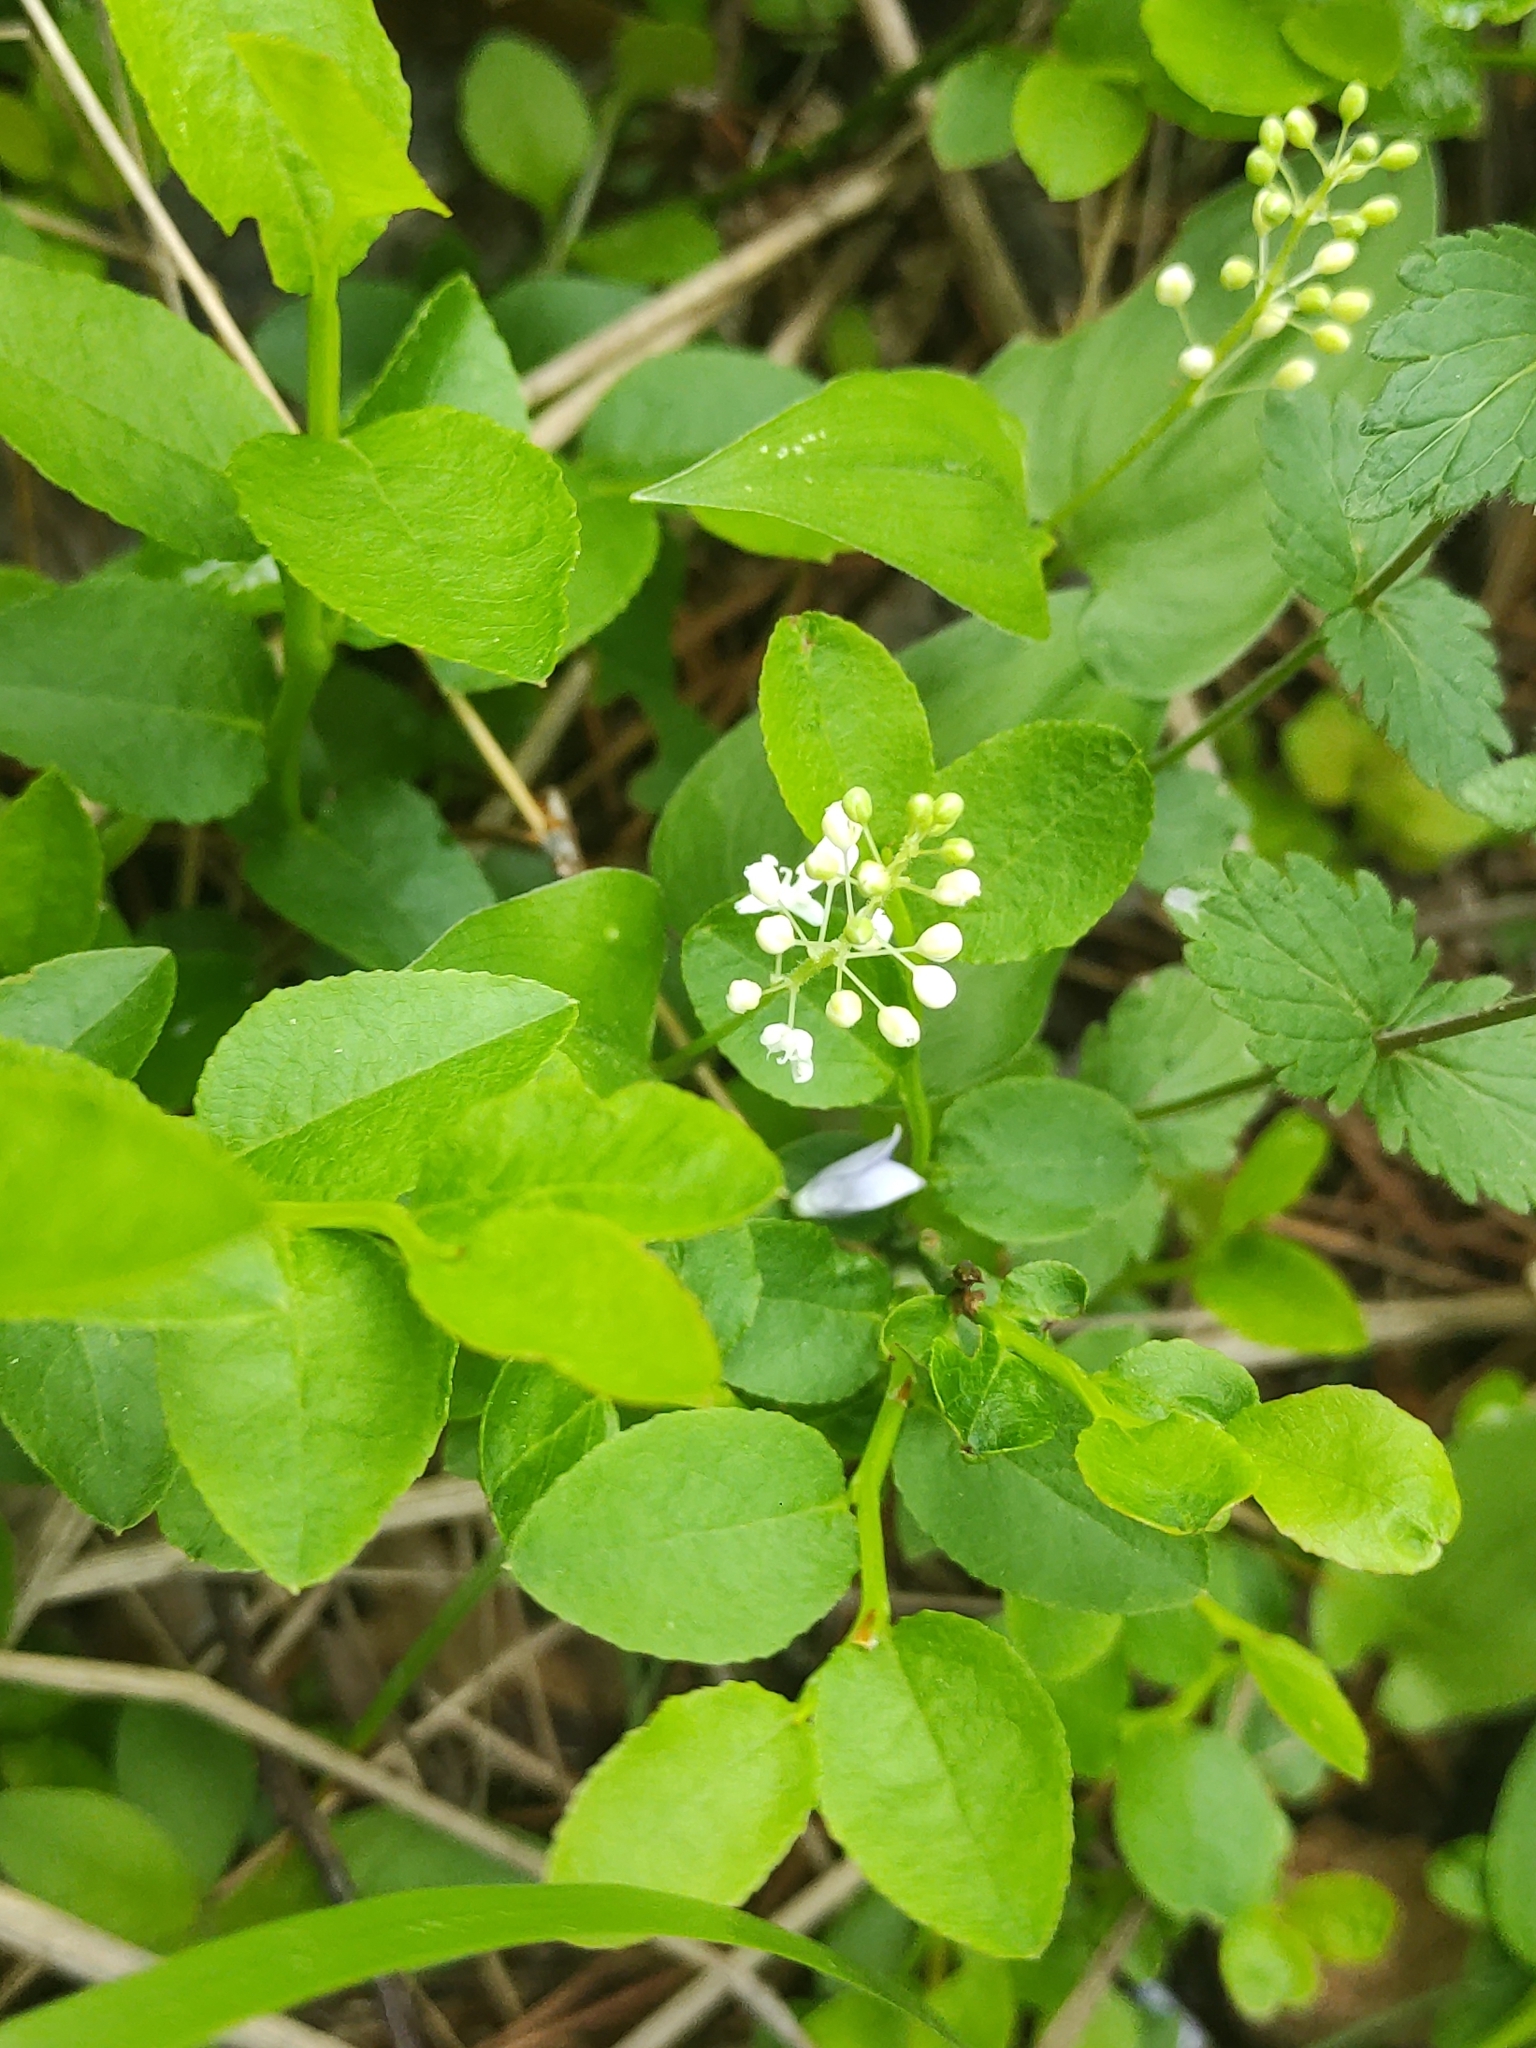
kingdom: Plantae
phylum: Tracheophyta
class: Liliopsida
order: Asparagales
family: Asparagaceae
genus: Maianthemum
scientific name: Maianthemum bifolium
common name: May lily
